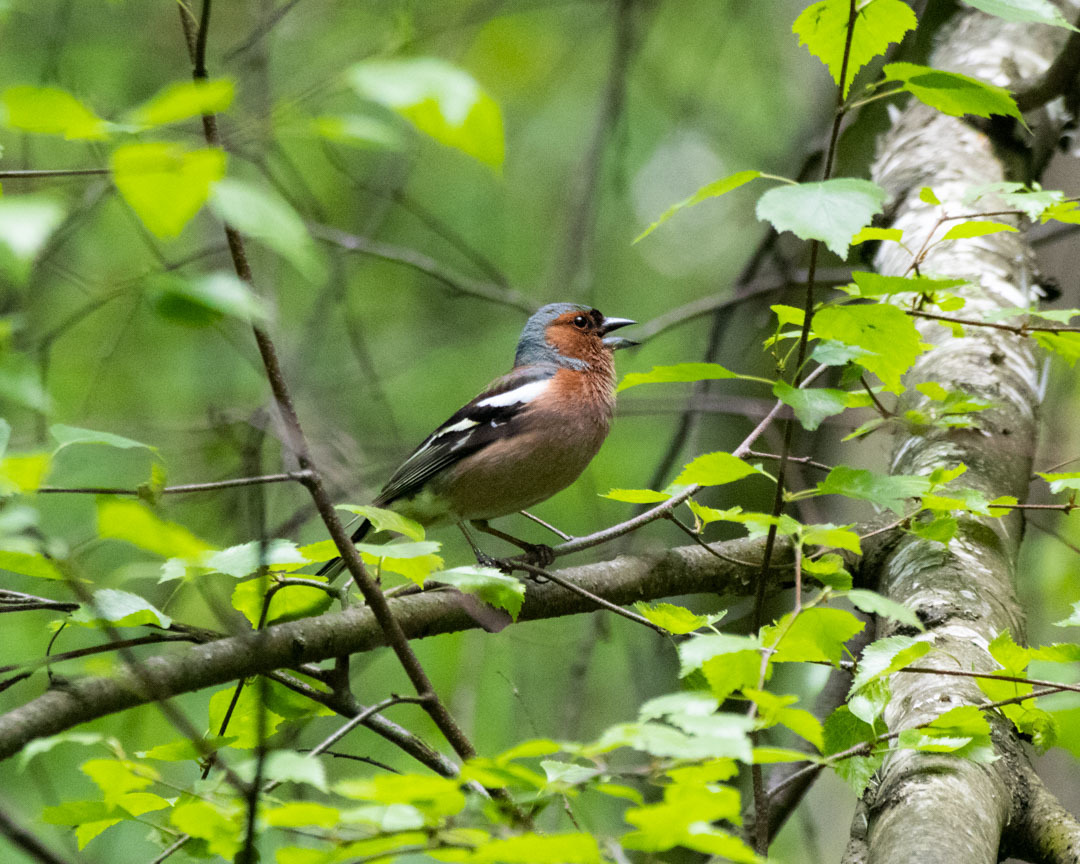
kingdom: Animalia
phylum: Chordata
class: Aves
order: Passeriformes
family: Fringillidae
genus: Fringilla
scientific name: Fringilla coelebs
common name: Common chaffinch
